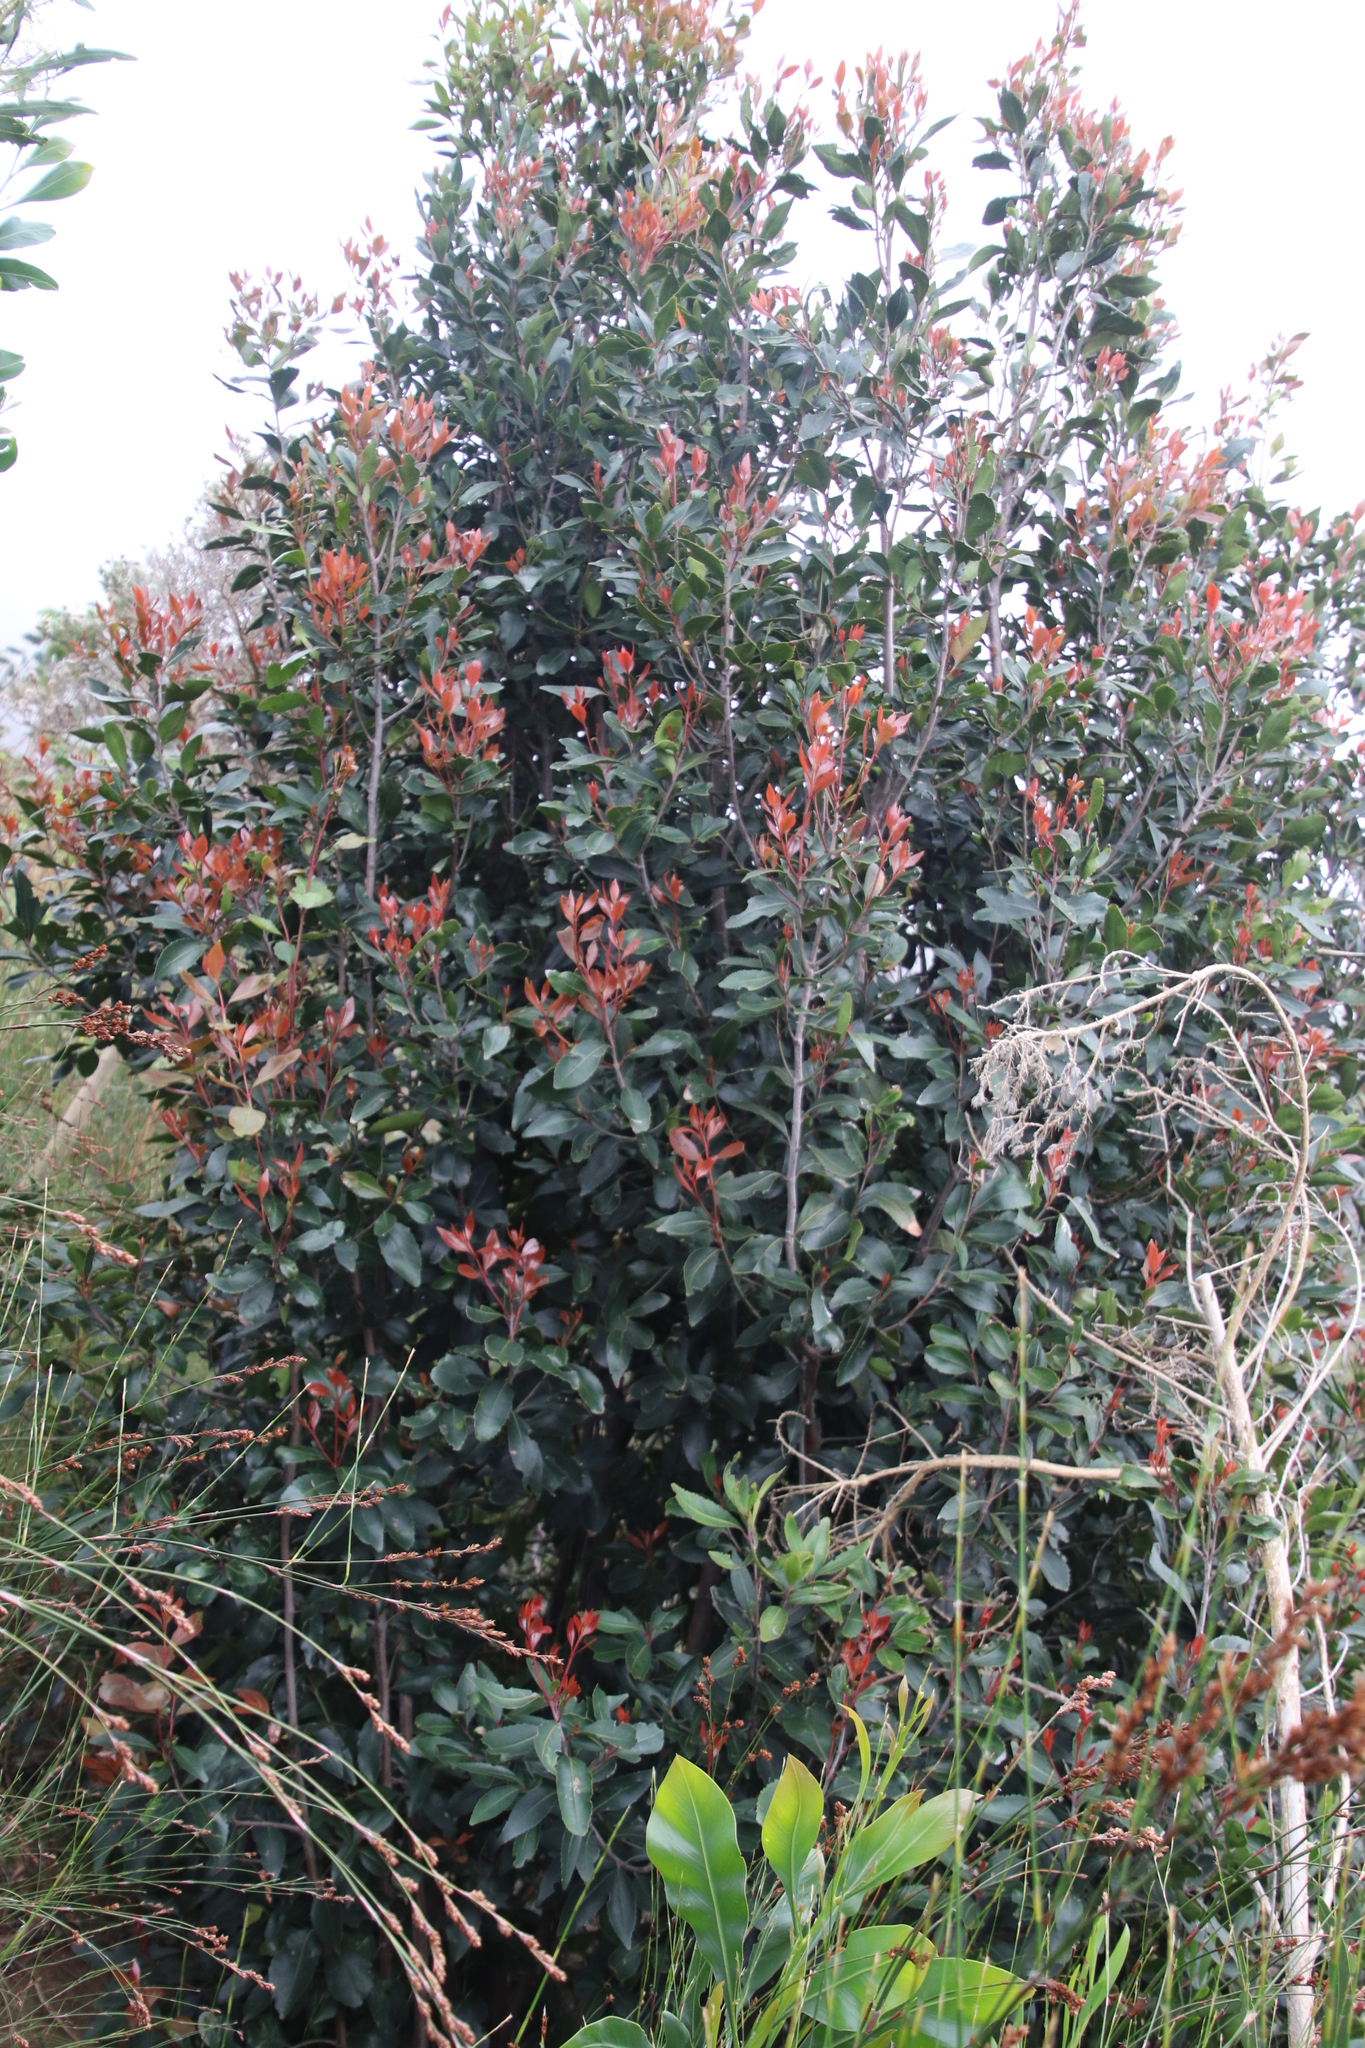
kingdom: Plantae
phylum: Tracheophyta
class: Magnoliopsida
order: Celastrales
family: Celastraceae
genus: Elaeodendron
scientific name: Elaeodendron schinoides
